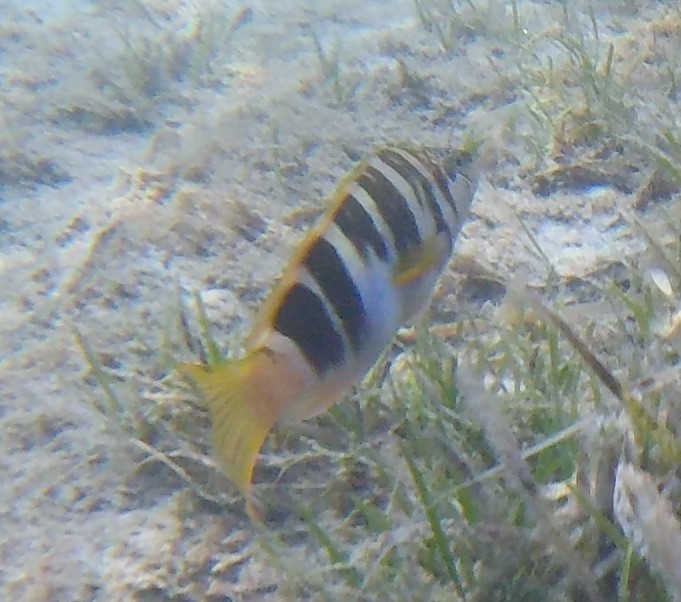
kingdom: Animalia
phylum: Chordata
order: Perciformes
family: Serranidae
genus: Serranus
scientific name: Serranus scriba
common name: Painted comber
